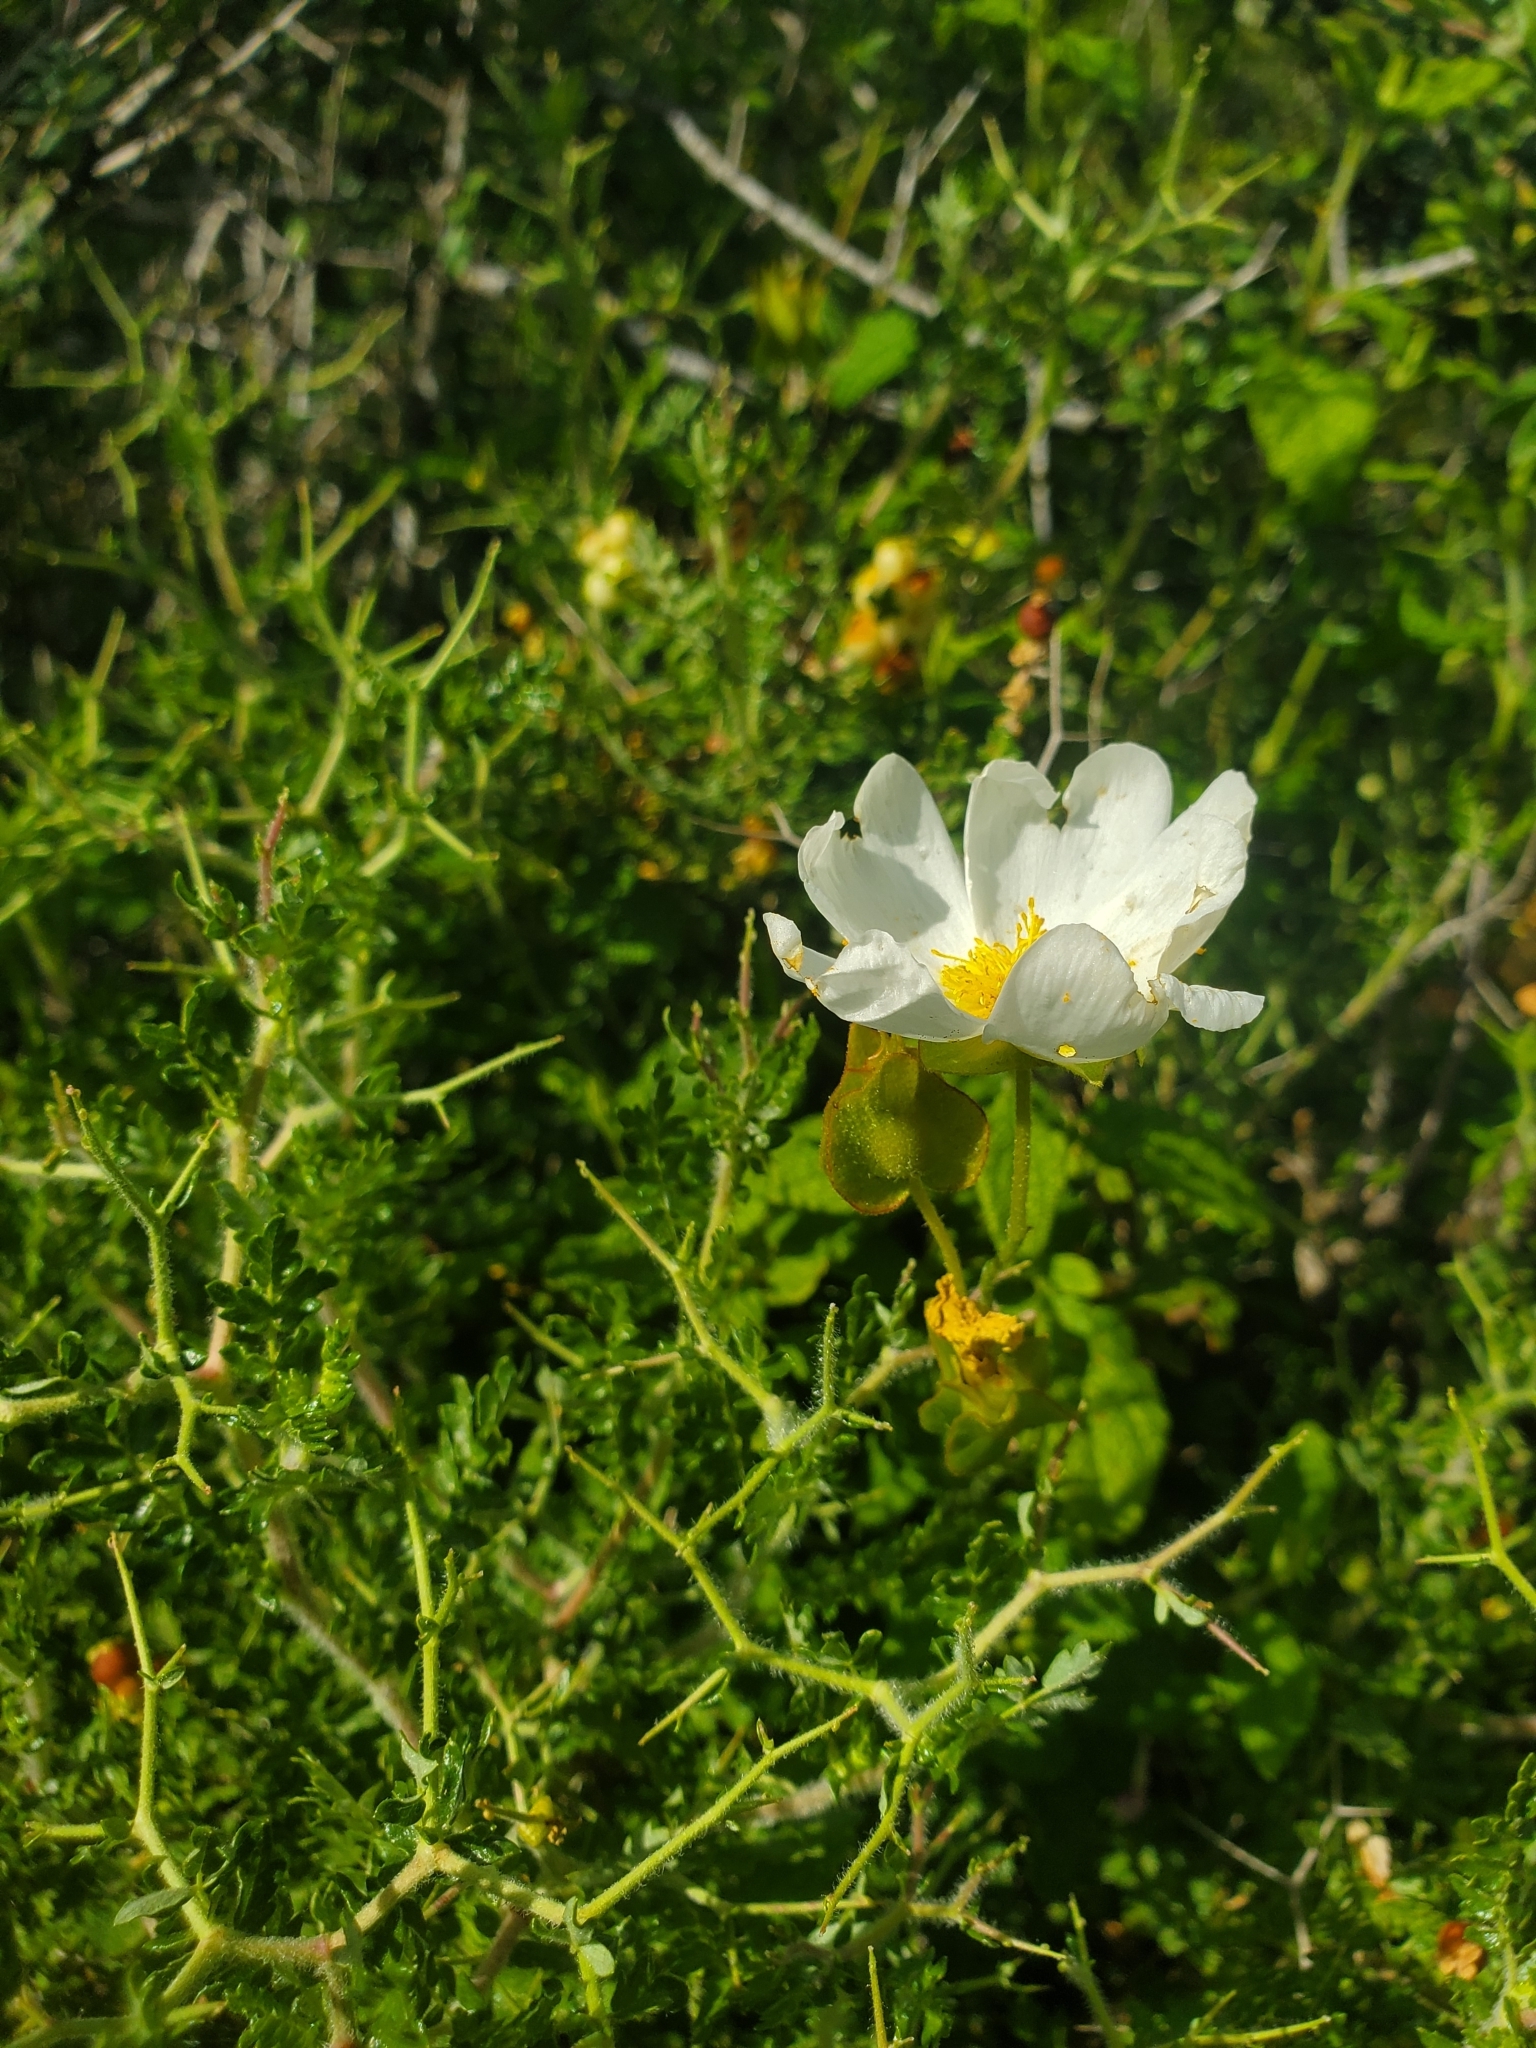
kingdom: Plantae
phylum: Tracheophyta
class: Magnoliopsida
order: Malvales
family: Cistaceae
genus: Cistus
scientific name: Cistus salviifolius
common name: Salvia cistus
